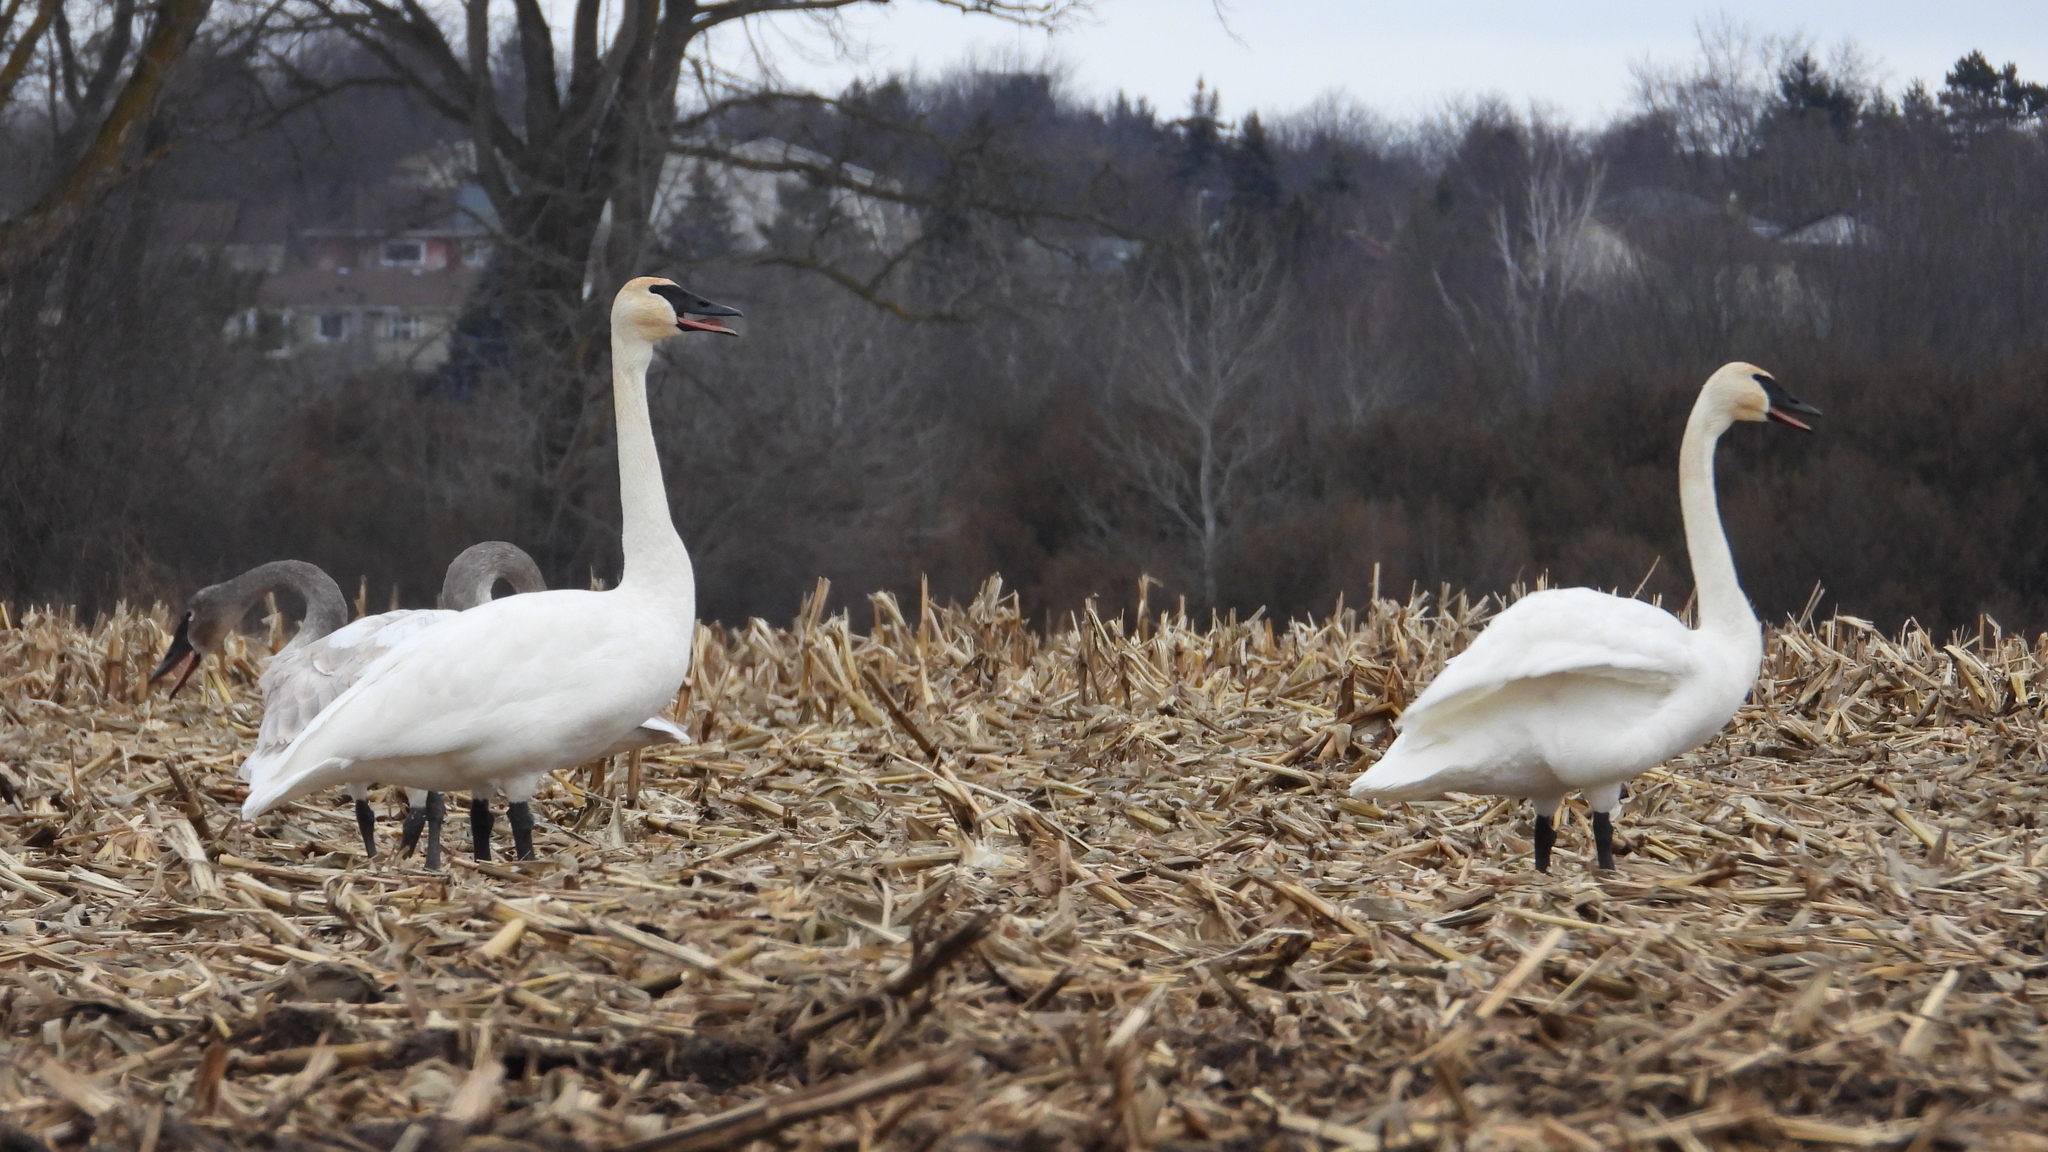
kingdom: Animalia
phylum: Chordata
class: Aves
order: Anseriformes
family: Anatidae
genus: Cygnus
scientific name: Cygnus buccinator
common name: Trumpeter swan
